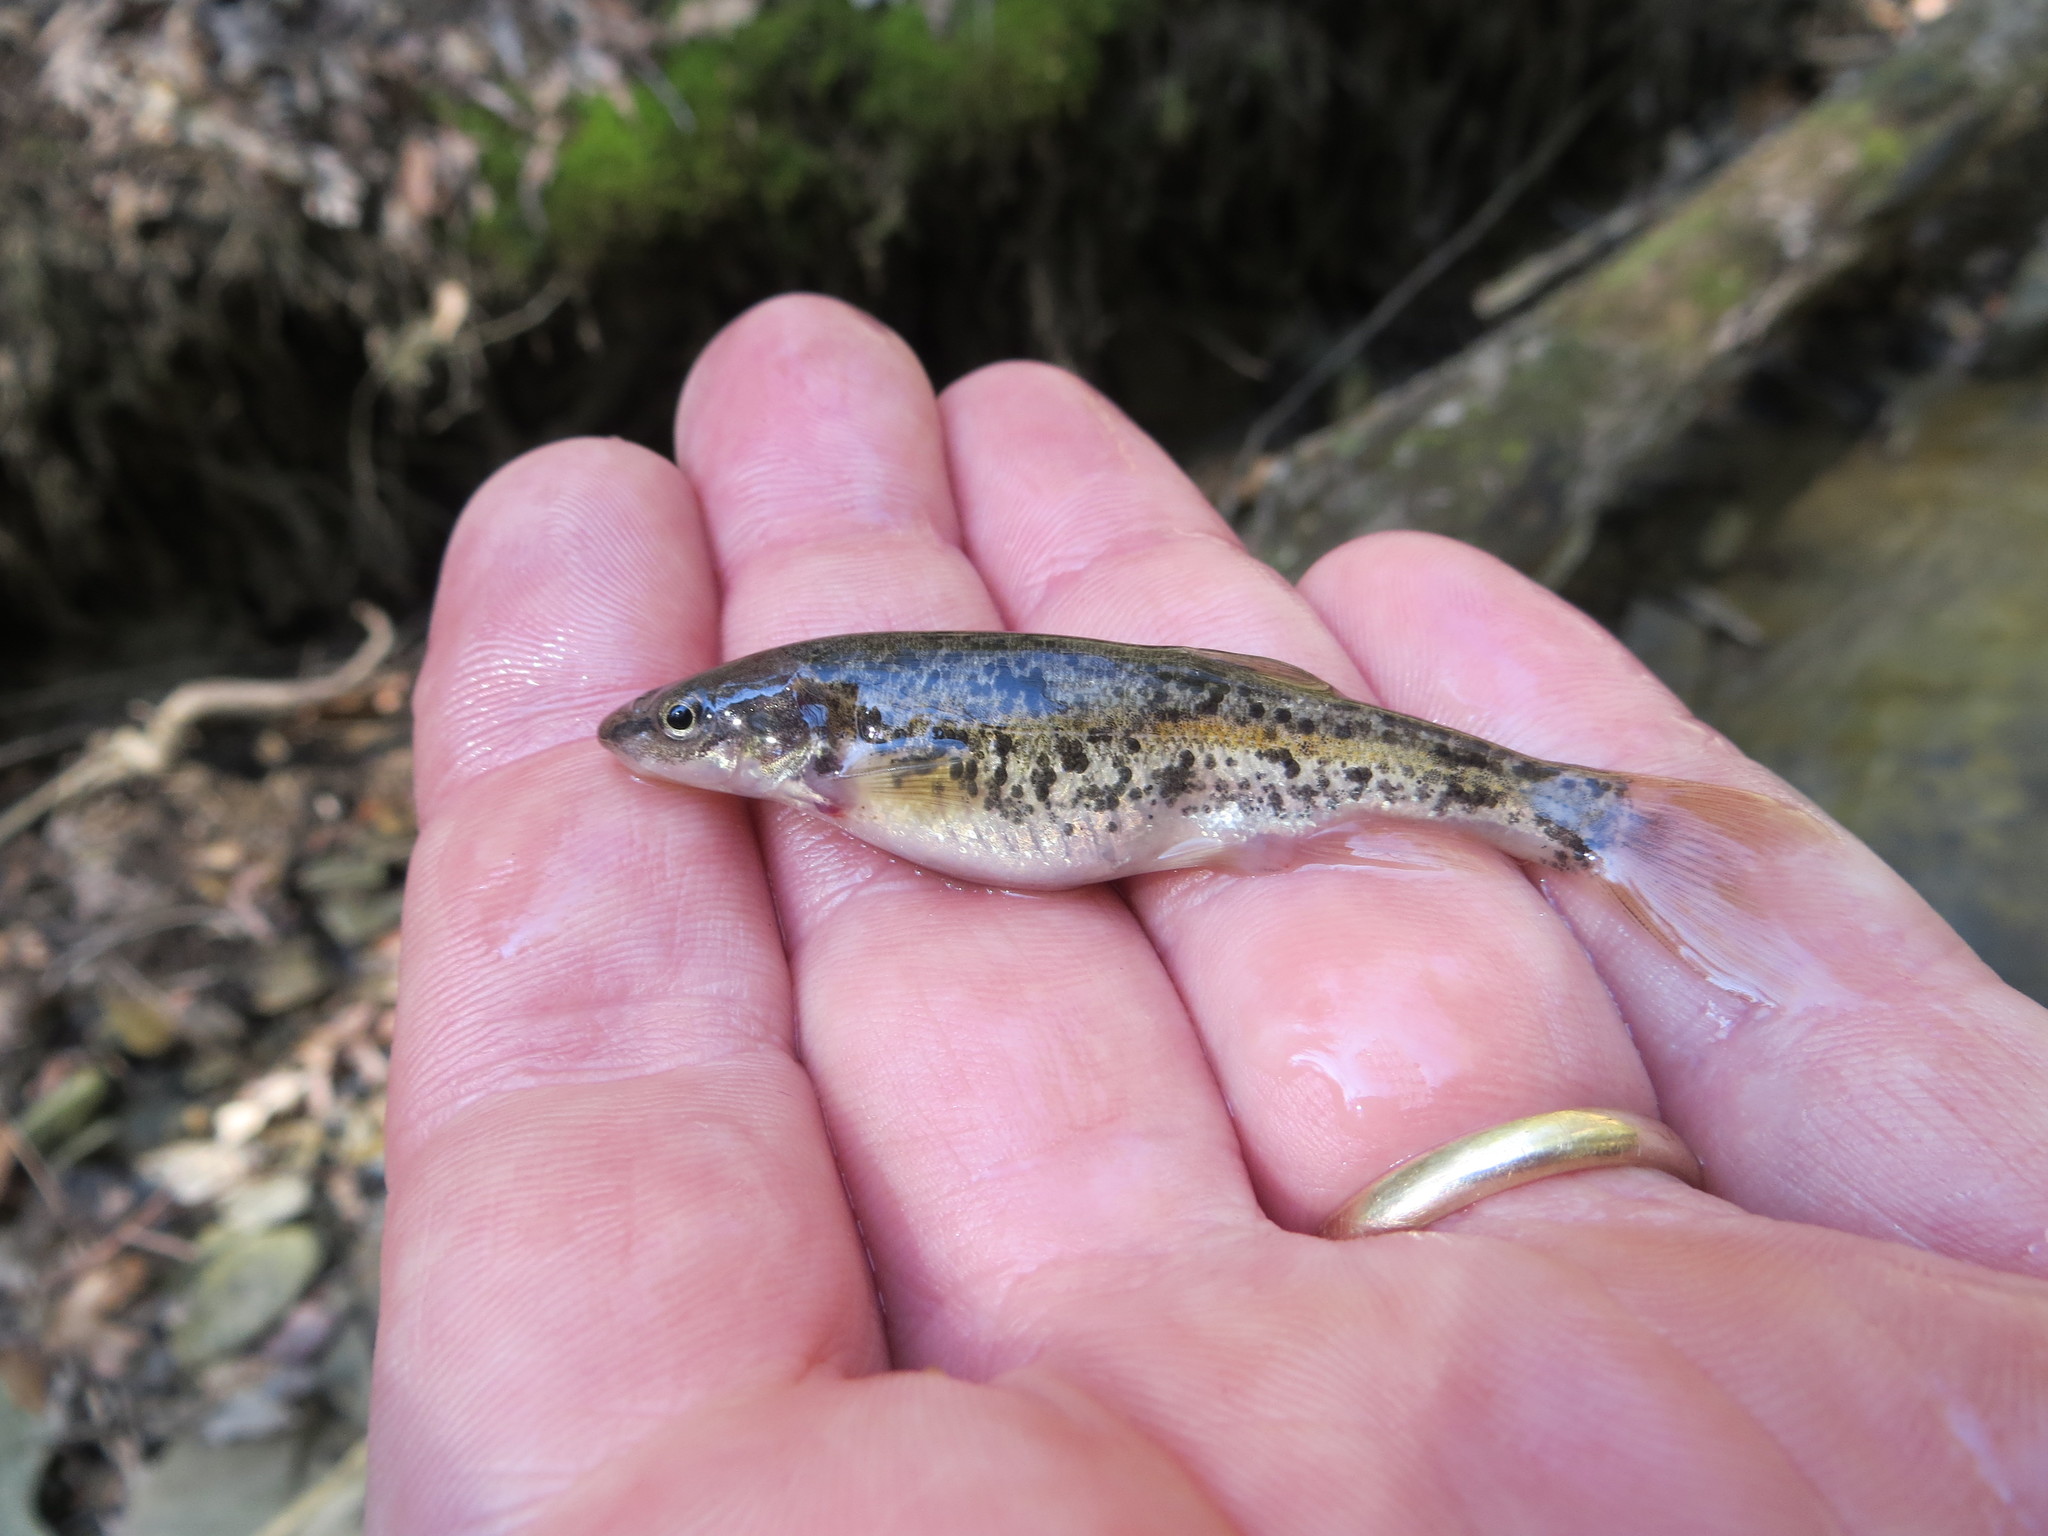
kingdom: Animalia
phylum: Chordata
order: Cypriniformes
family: Cyprinidae
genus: Rhinichthys
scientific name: Rhinichthys obtusus
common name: Western blacknose dace
